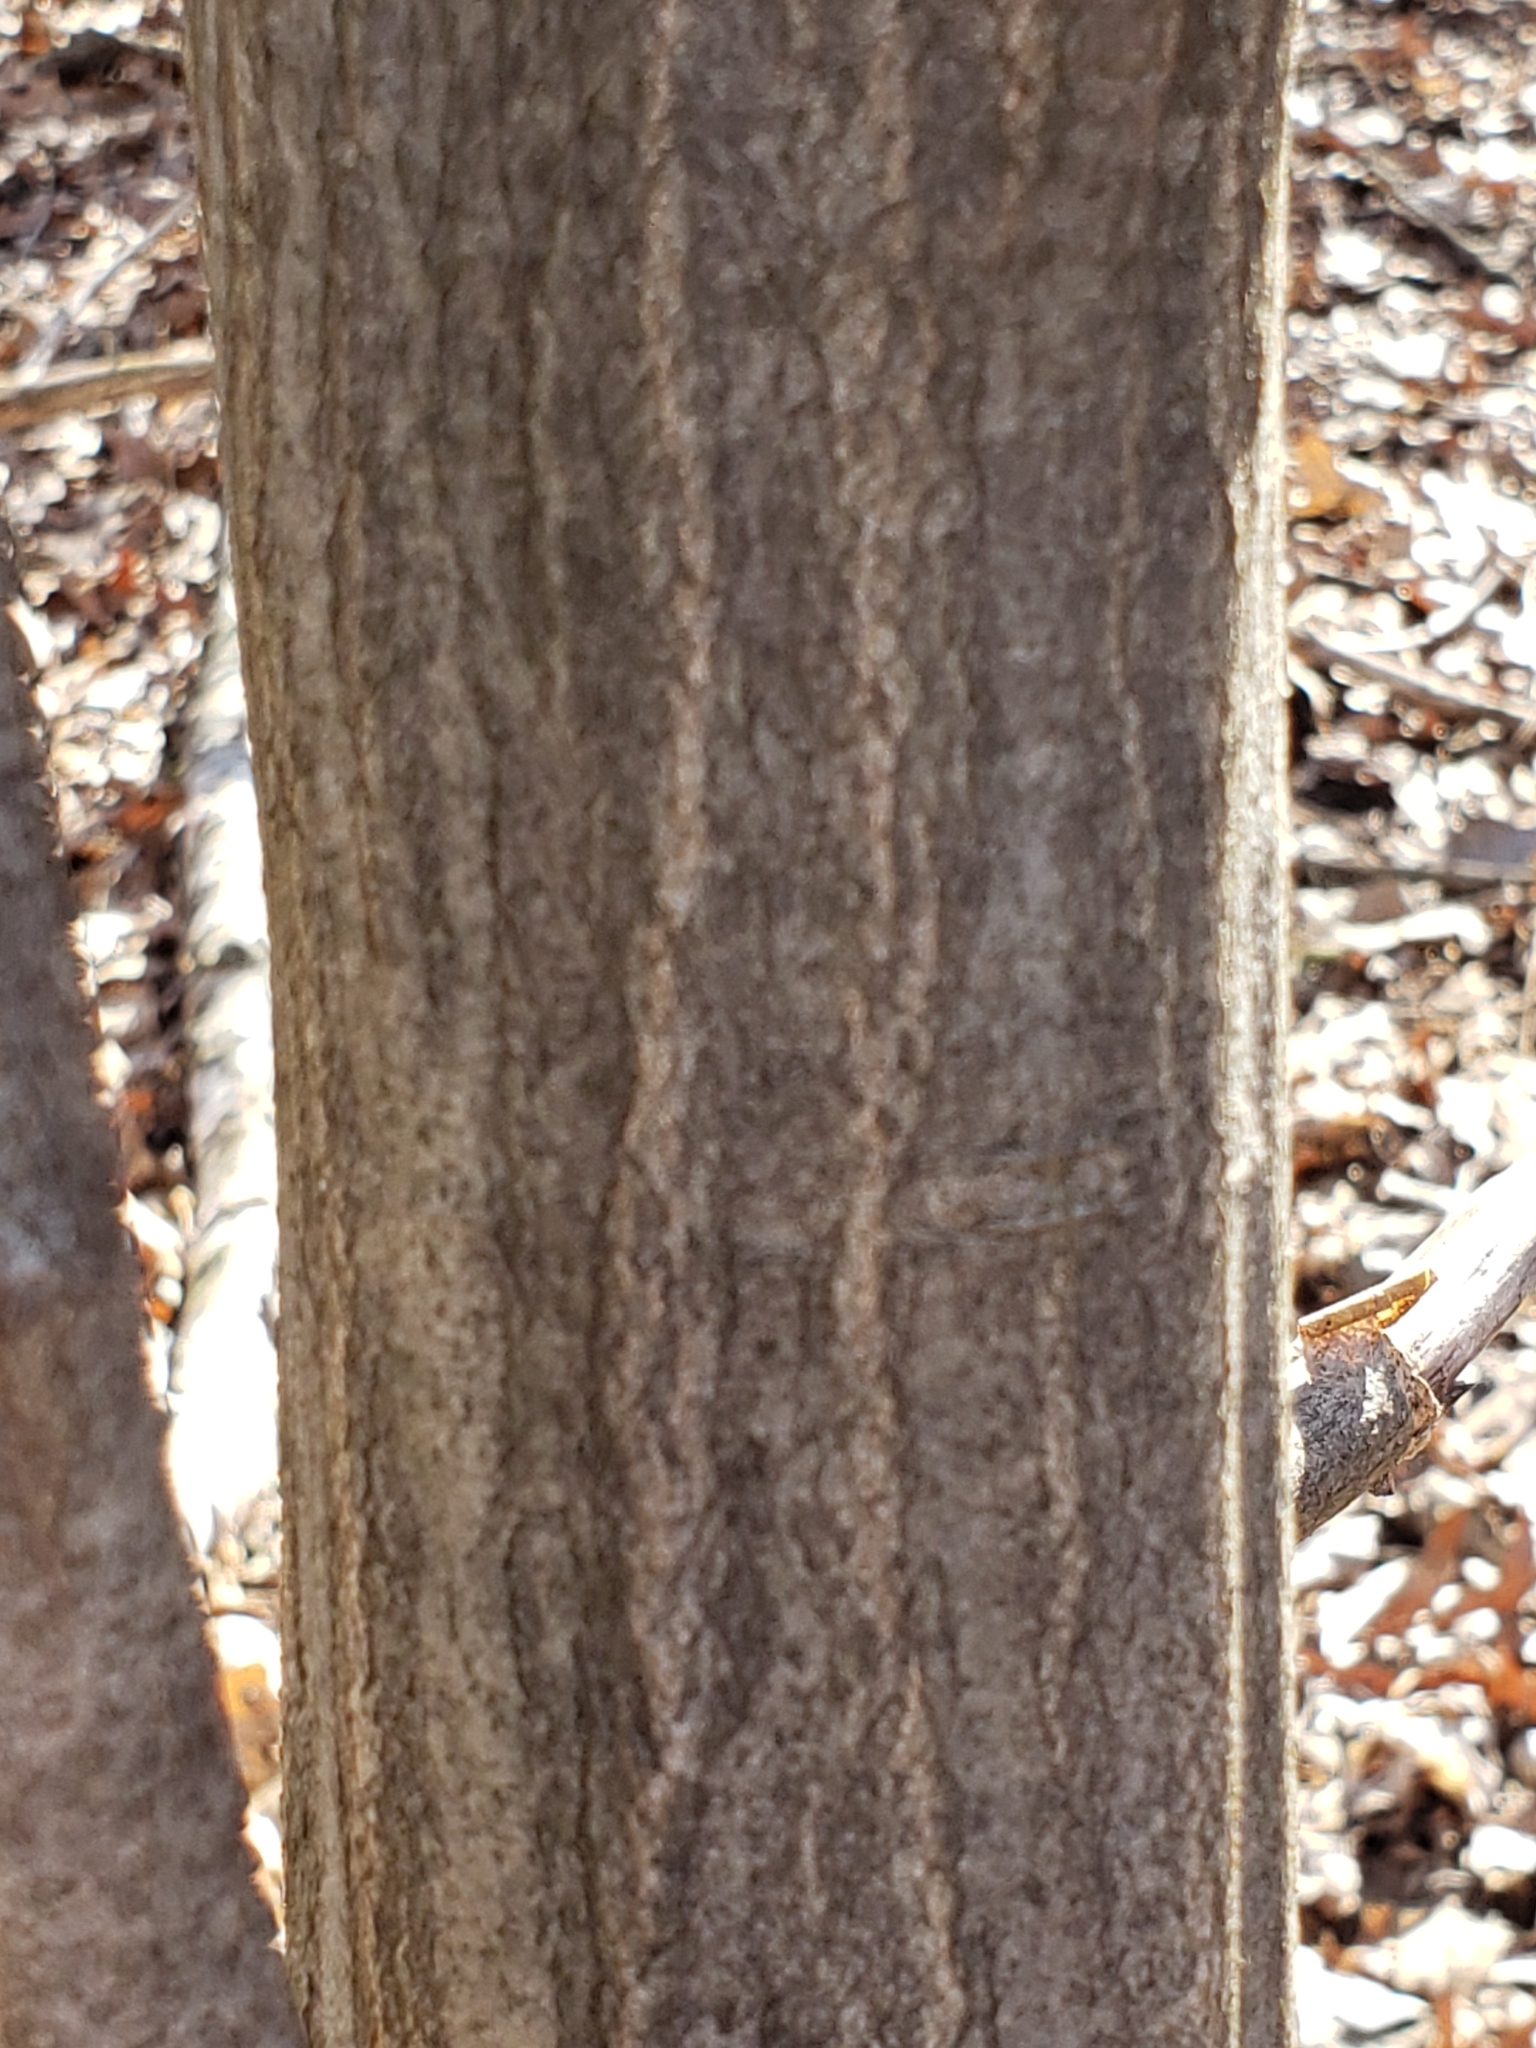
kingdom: Plantae
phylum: Tracheophyta
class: Magnoliopsida
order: Fagales
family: Betulaceae
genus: Carpinus
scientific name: Carpinus caroliniana
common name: American hornbeam
